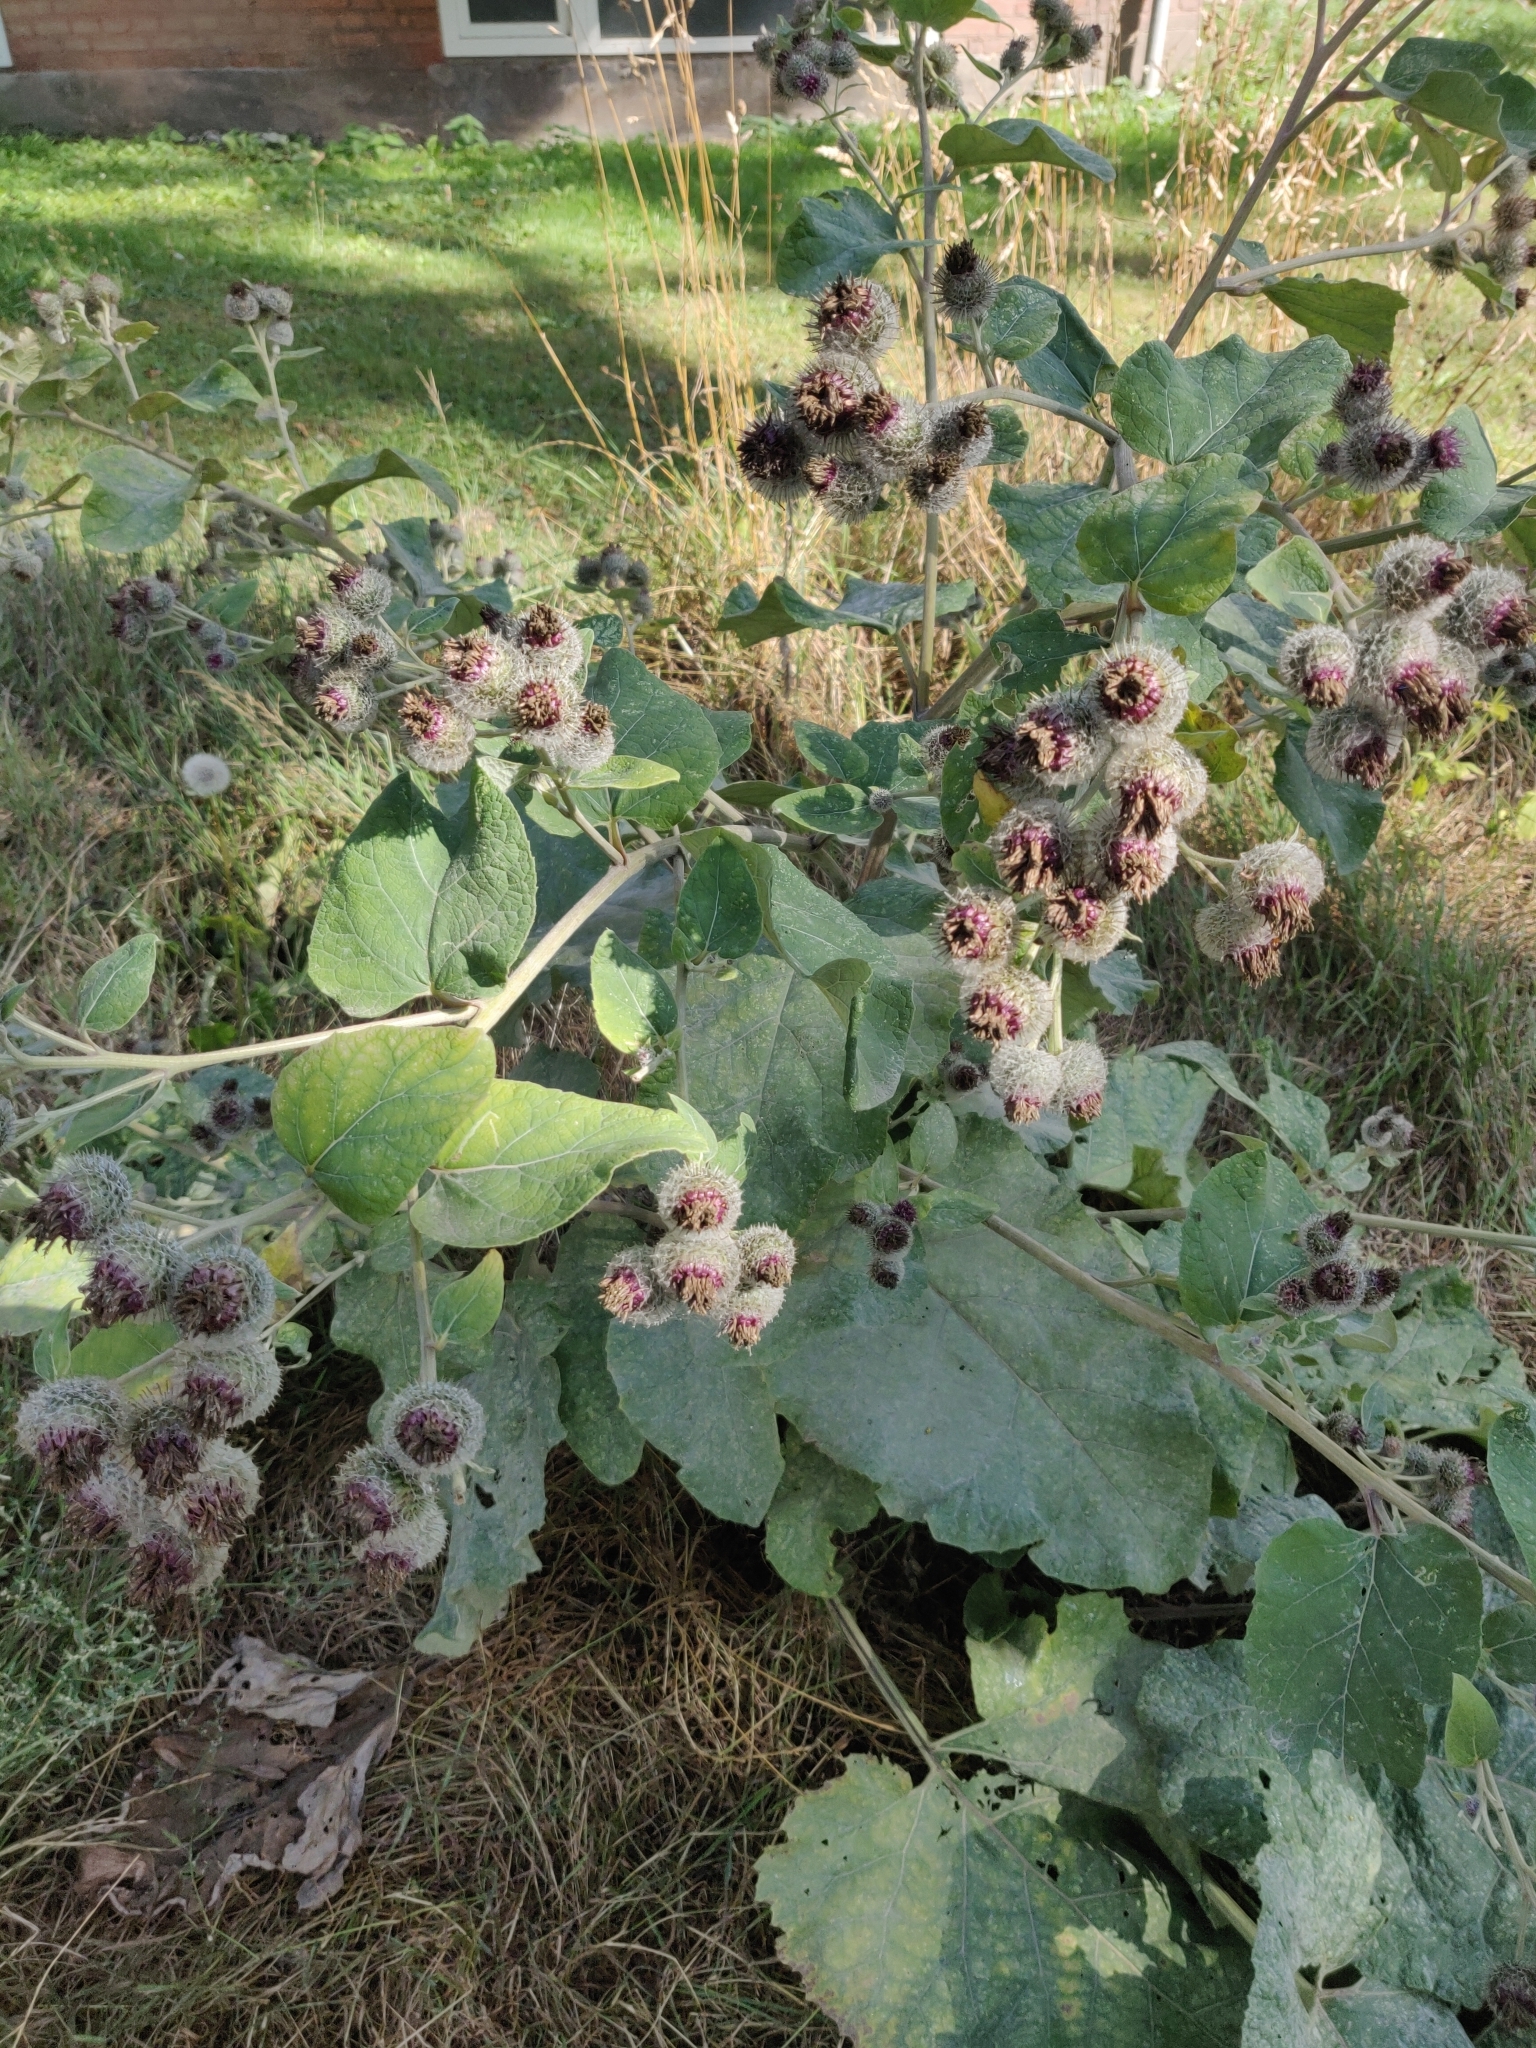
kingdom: Plantae
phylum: Tracheophyta
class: Magnoliopsida
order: Asterales
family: Asteraceae
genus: Arctium
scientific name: Arctium tomentosum
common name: Woolly burdock
